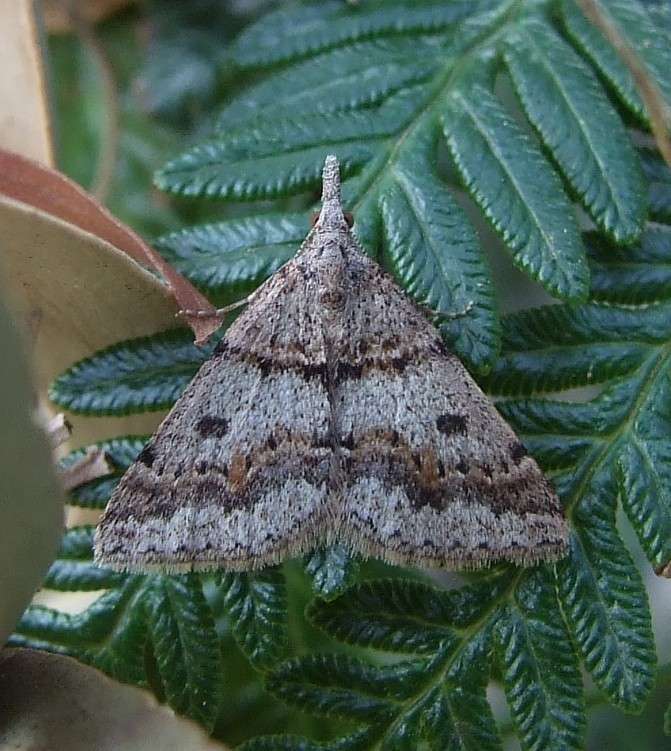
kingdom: Animalia
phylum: Arthropoda
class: Insecta
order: Lepidoptera
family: Geometridae
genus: Dichromodes
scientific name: Dichromodes mesogonia
